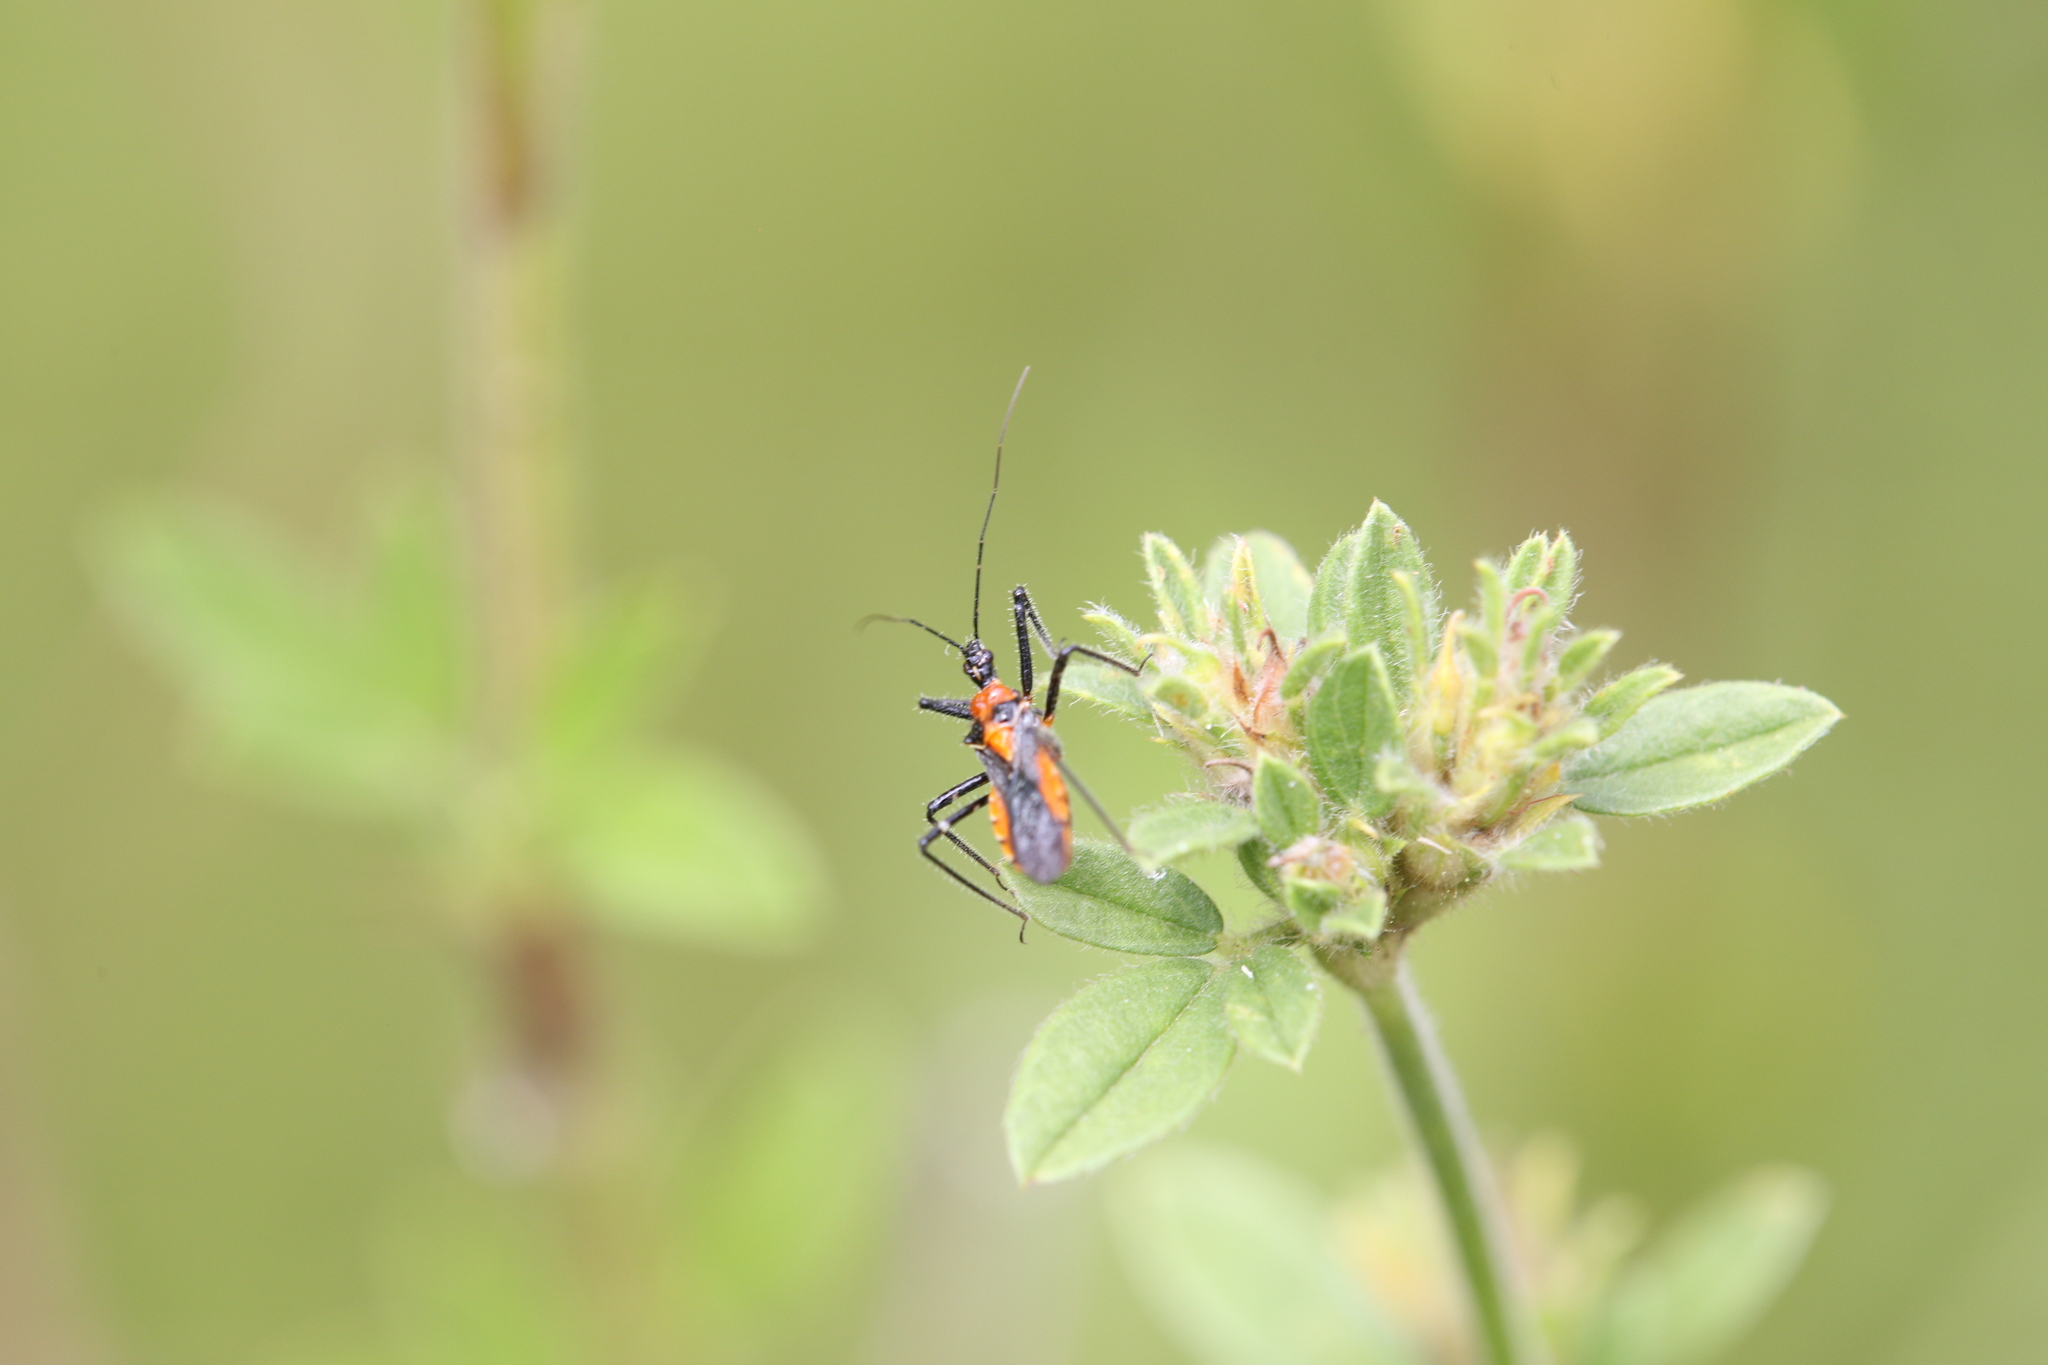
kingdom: Animalia
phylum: Arthropoda
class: Insecta
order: Hemiptera
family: Reduviidae
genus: Trachylestes
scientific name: Trachylestes aspericollis
